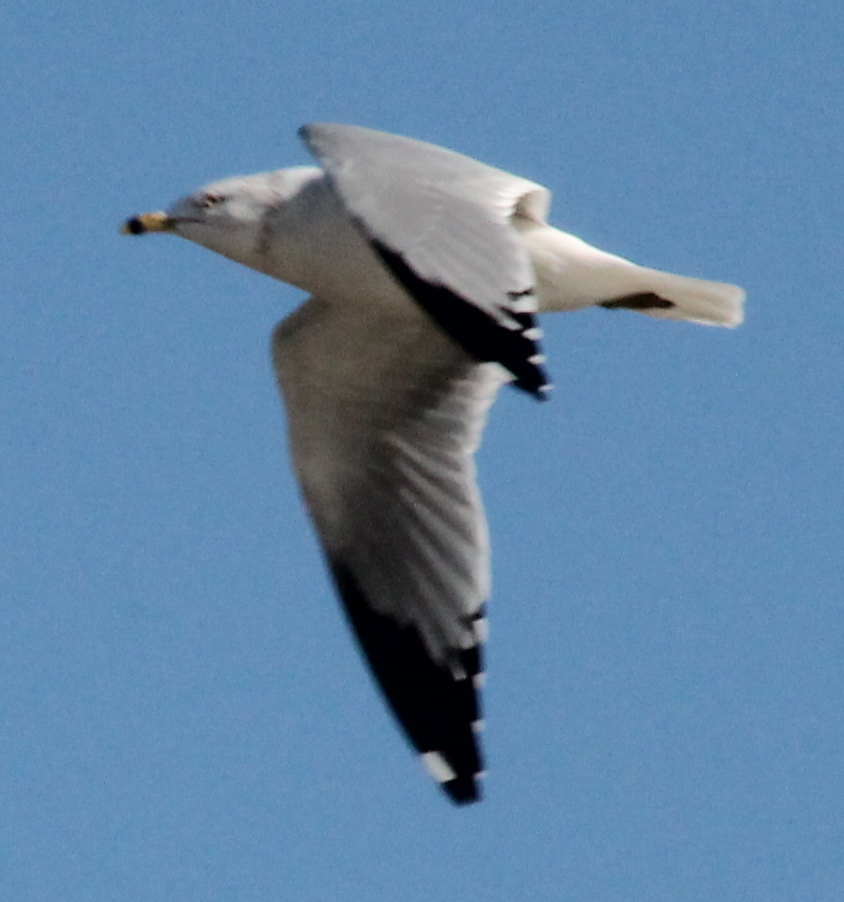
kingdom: Animalia
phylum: Chordata
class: Aves
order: Charadriiformes
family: Laridae
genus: Larus
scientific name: Larus delawarensis
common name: Ring-billed gull
